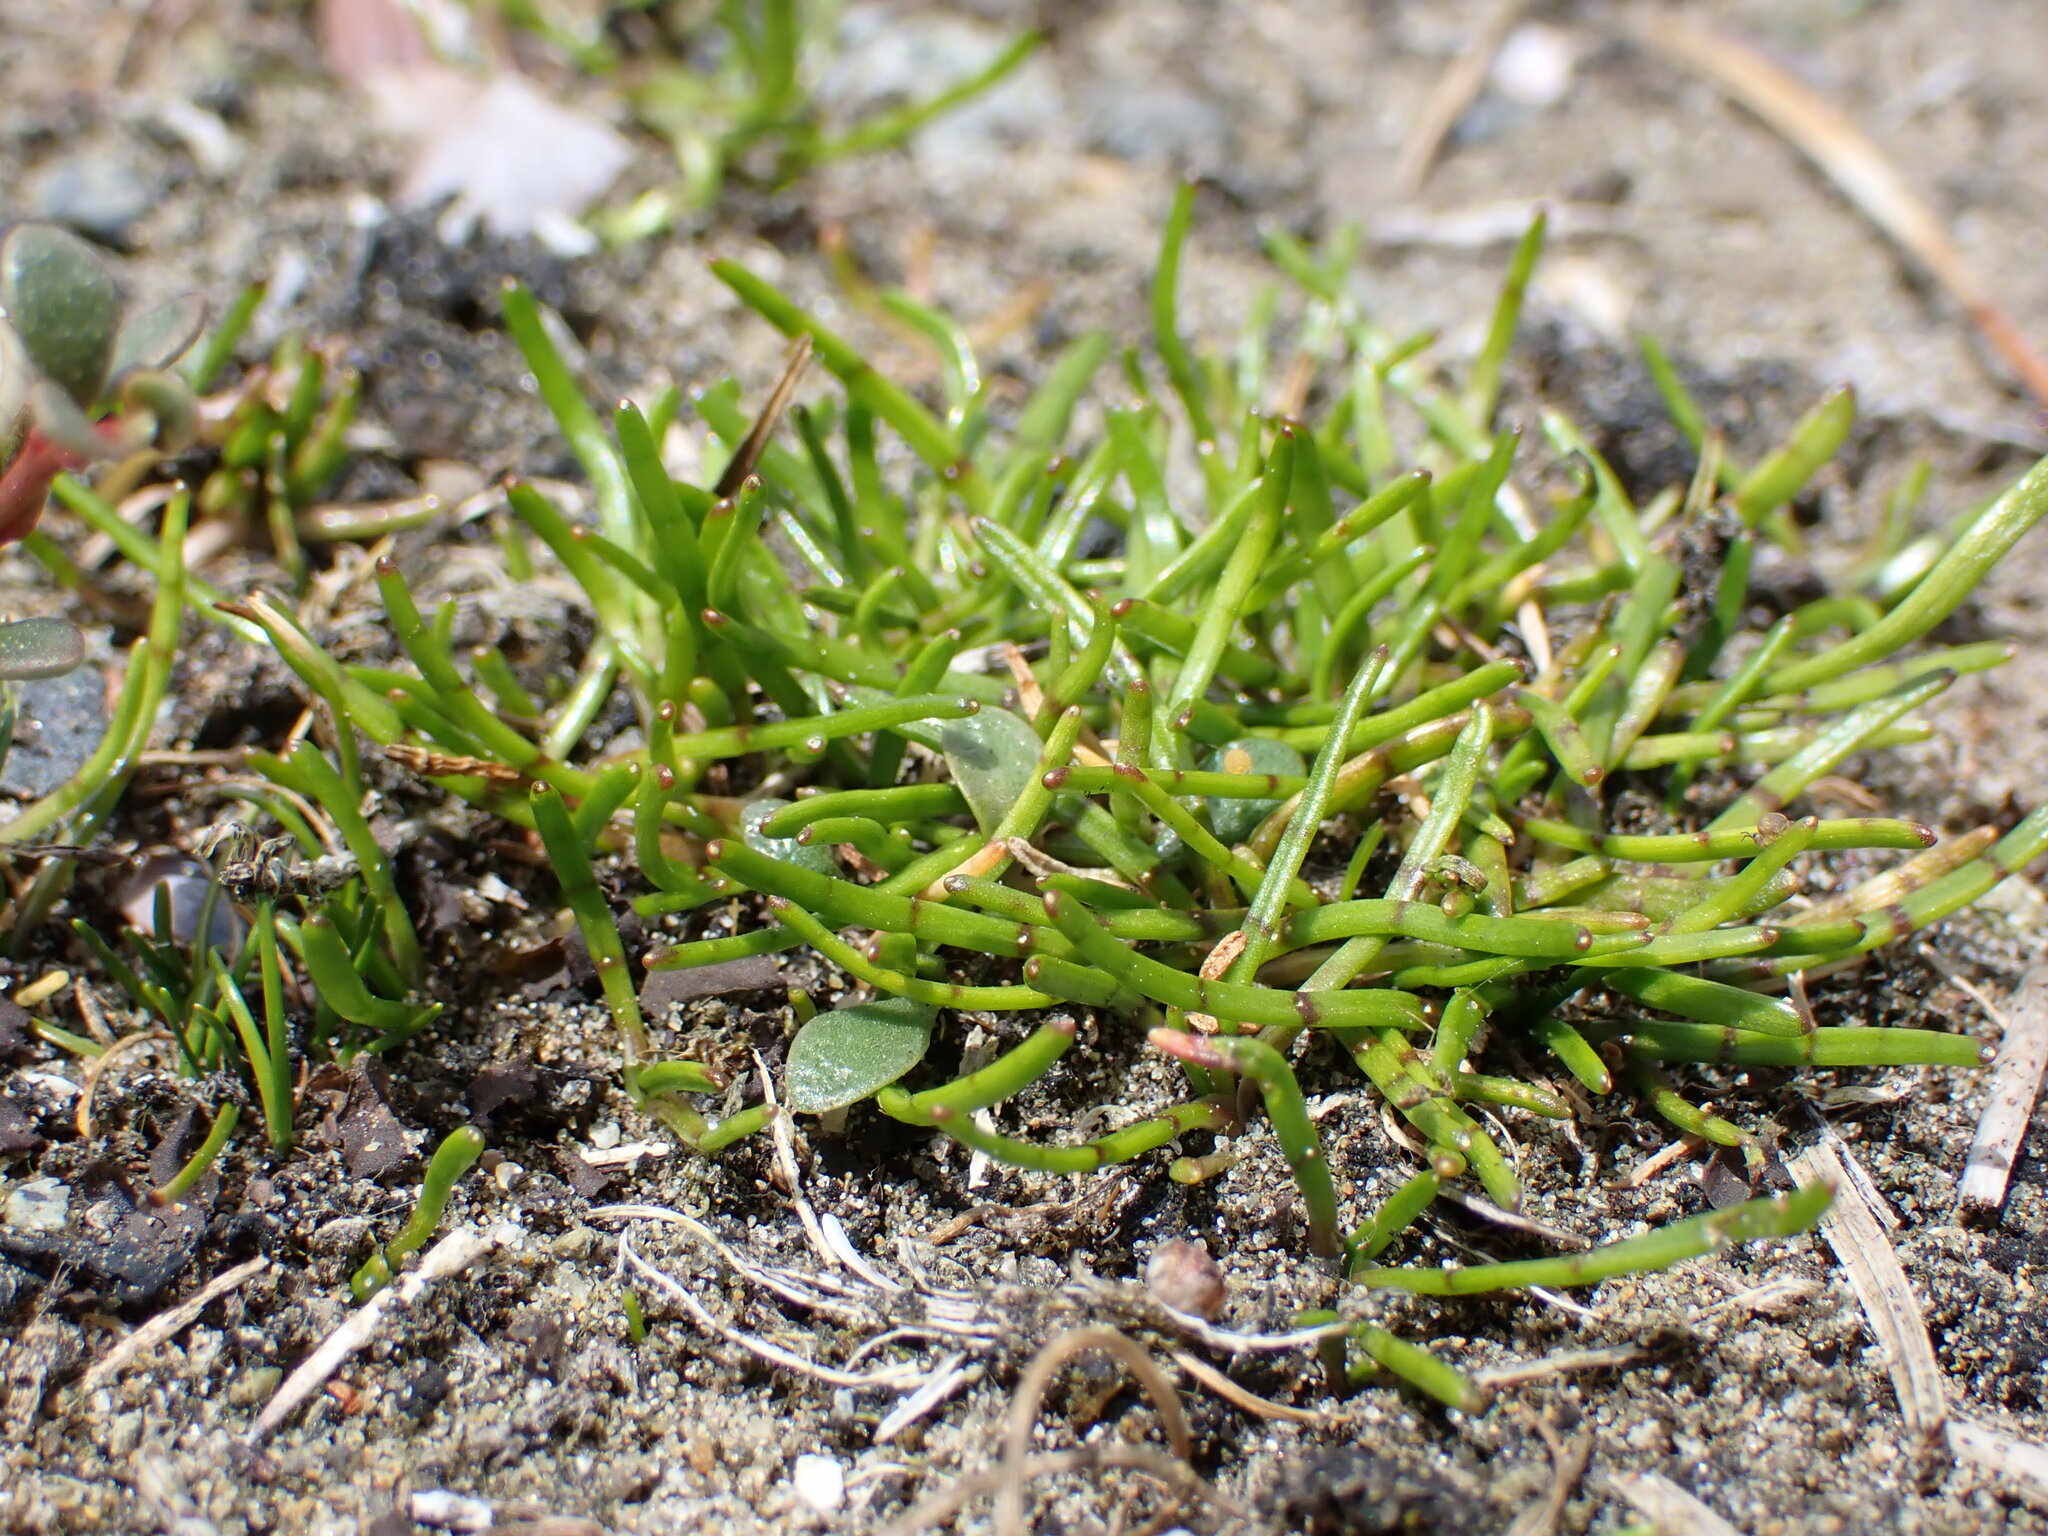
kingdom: Plantae
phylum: Tracheophyta
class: Magnoliopsida
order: Apiales
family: Apiaceae
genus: Lilaeopsis
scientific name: Lilaeopsis novae-zelandiae
